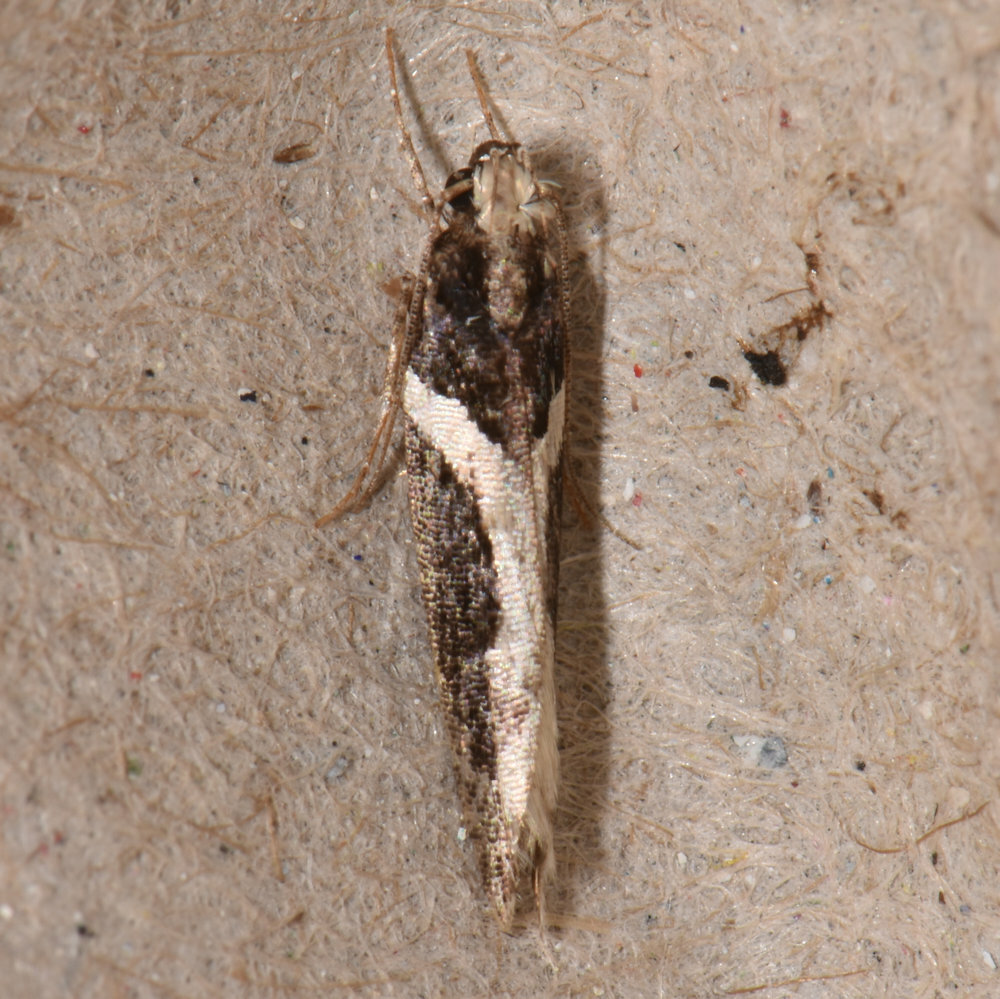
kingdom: Animalia
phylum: Arthropoda
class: Insecta
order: Lepidoptera
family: Gelechiidae
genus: Telphusa
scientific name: Telphusa longifasciella
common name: Y-backed telphusa
